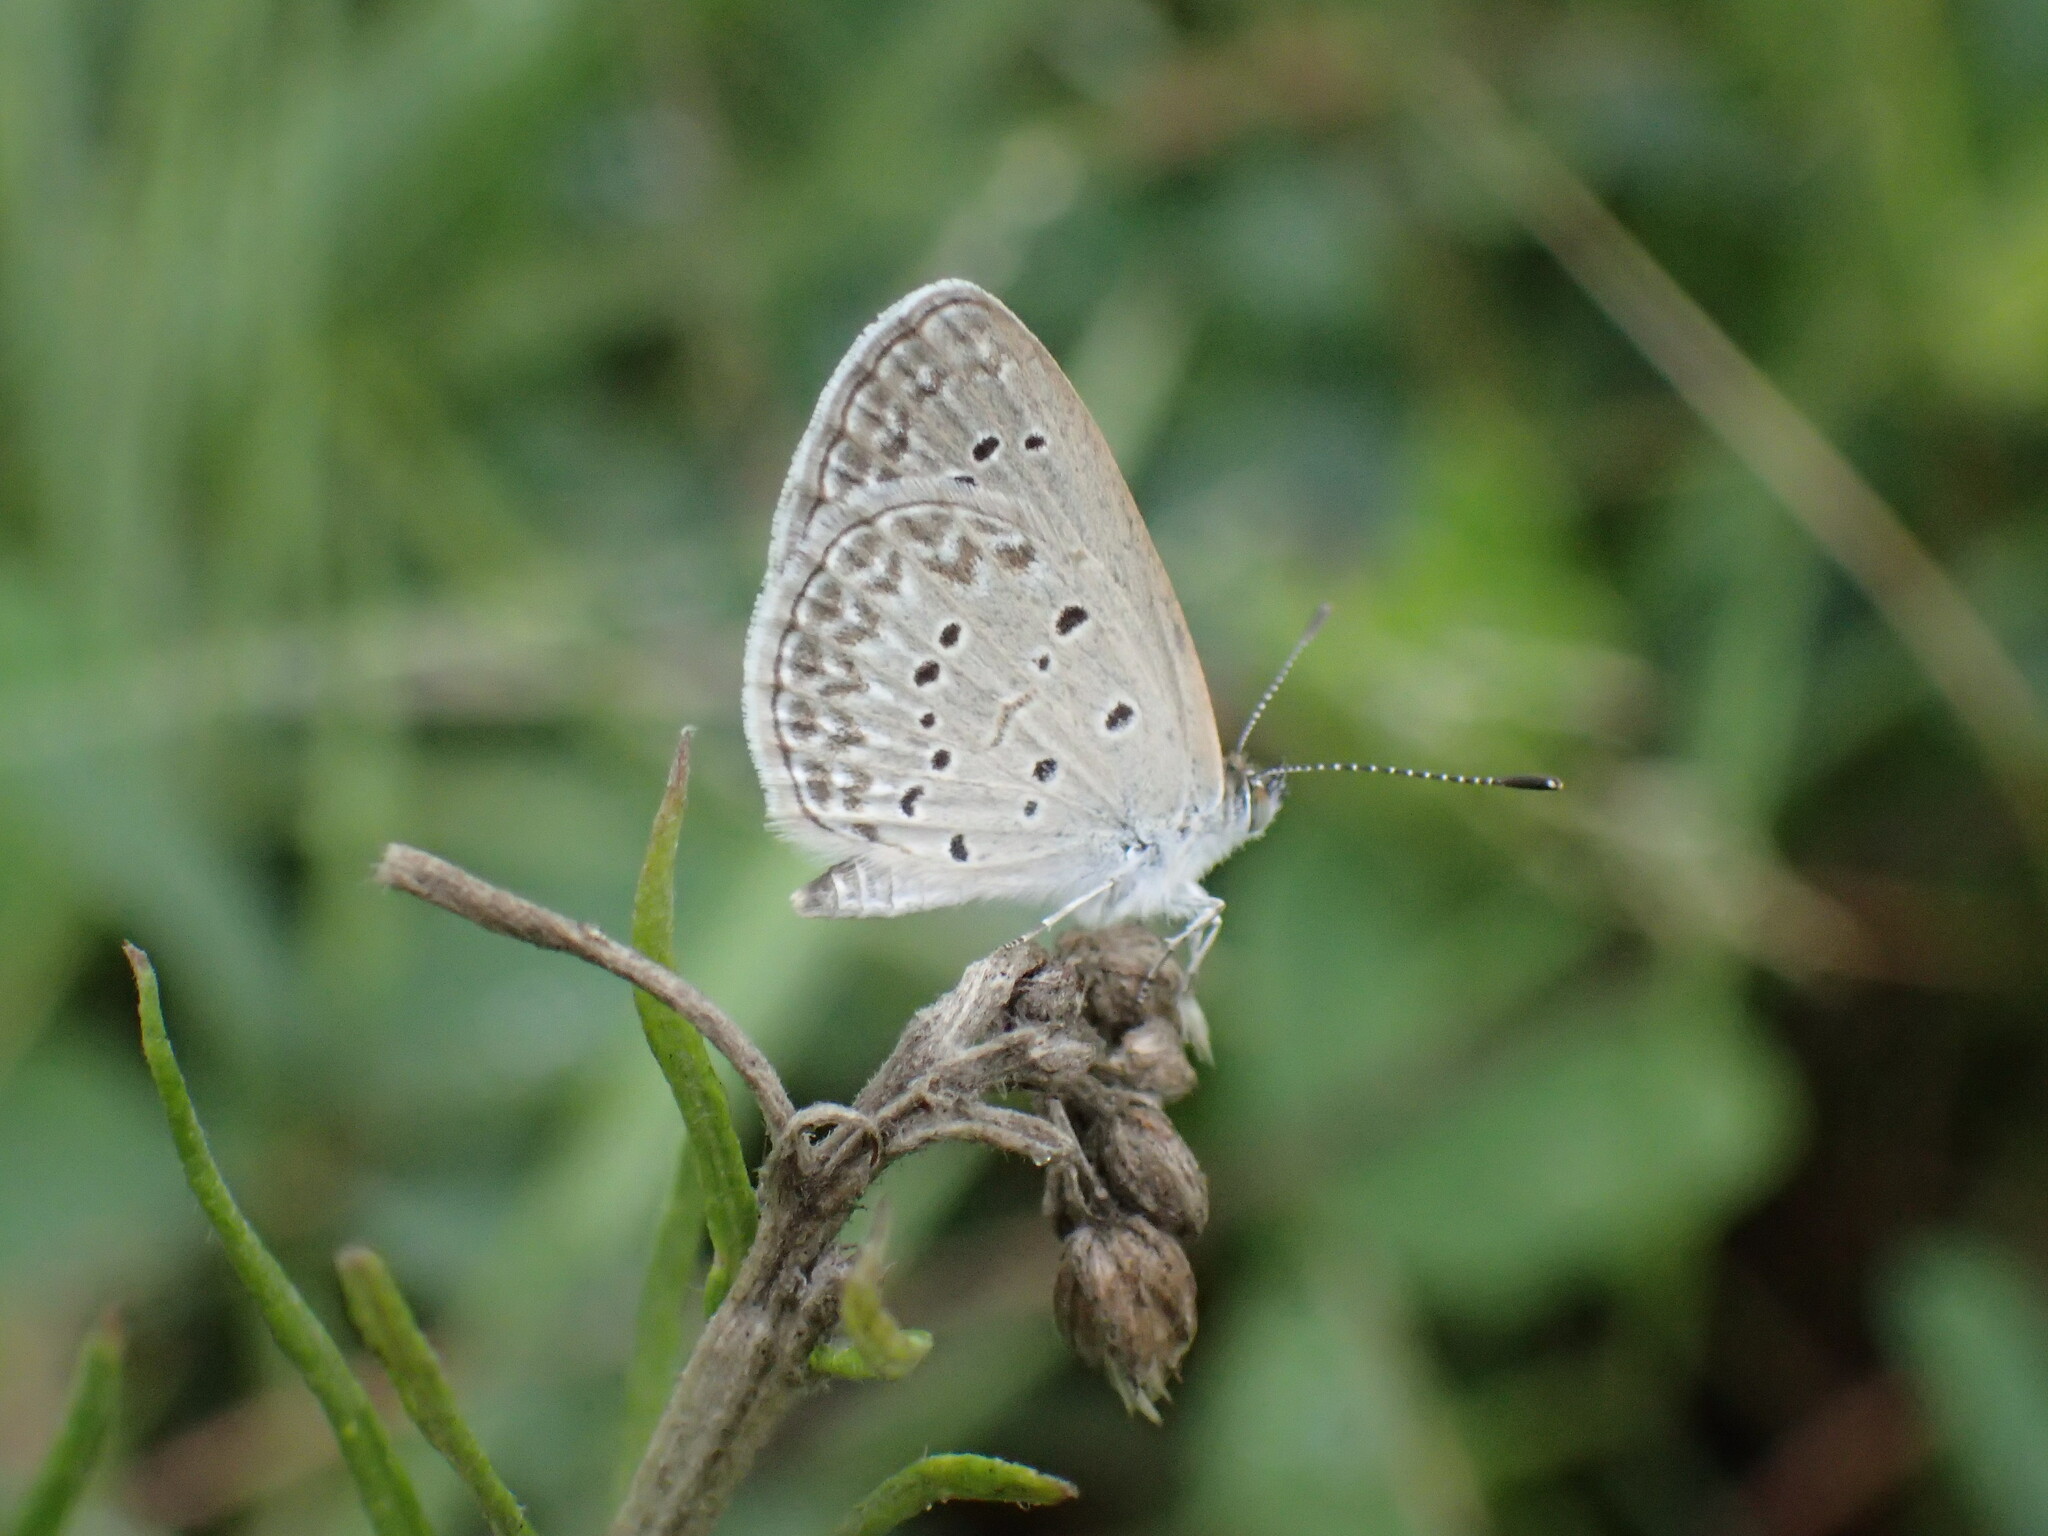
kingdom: Animalia
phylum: Arthropoda
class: Insecta
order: Lepidoptera
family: Lycaenidae
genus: Zizina
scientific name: Zizina otis
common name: Lesser grass blue
